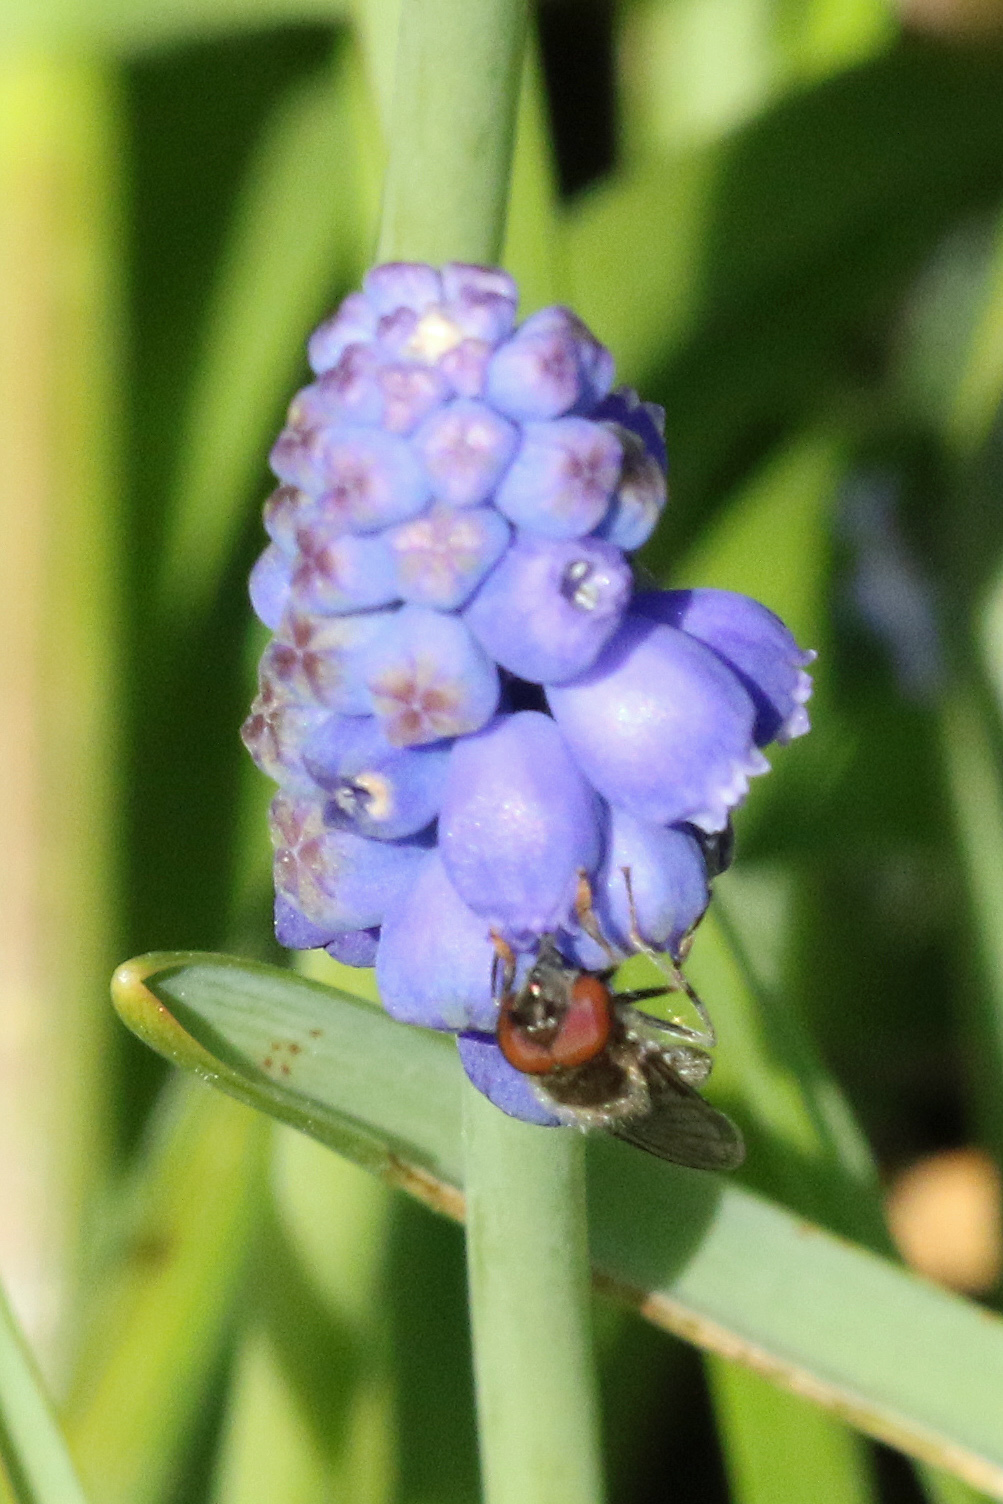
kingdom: Animalia
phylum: Arthropoda
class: Insecta
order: Diptera
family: Syrphidae
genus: Platycheirus
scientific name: Platycheirus
